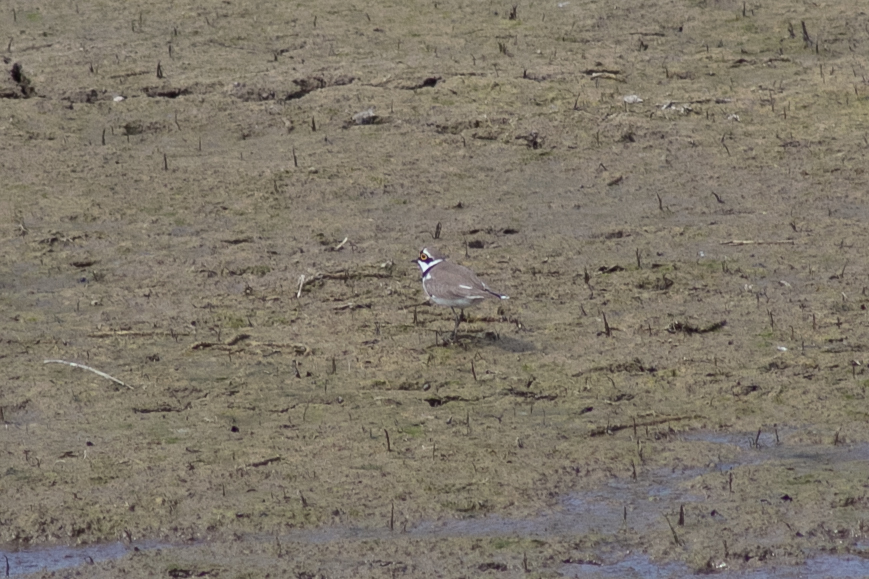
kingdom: Animalia
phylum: Chordata
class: Aves
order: Charadriiformes
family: Charadriidae
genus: Charadrius
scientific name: Charadrius dubius
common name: Little ringed plover
